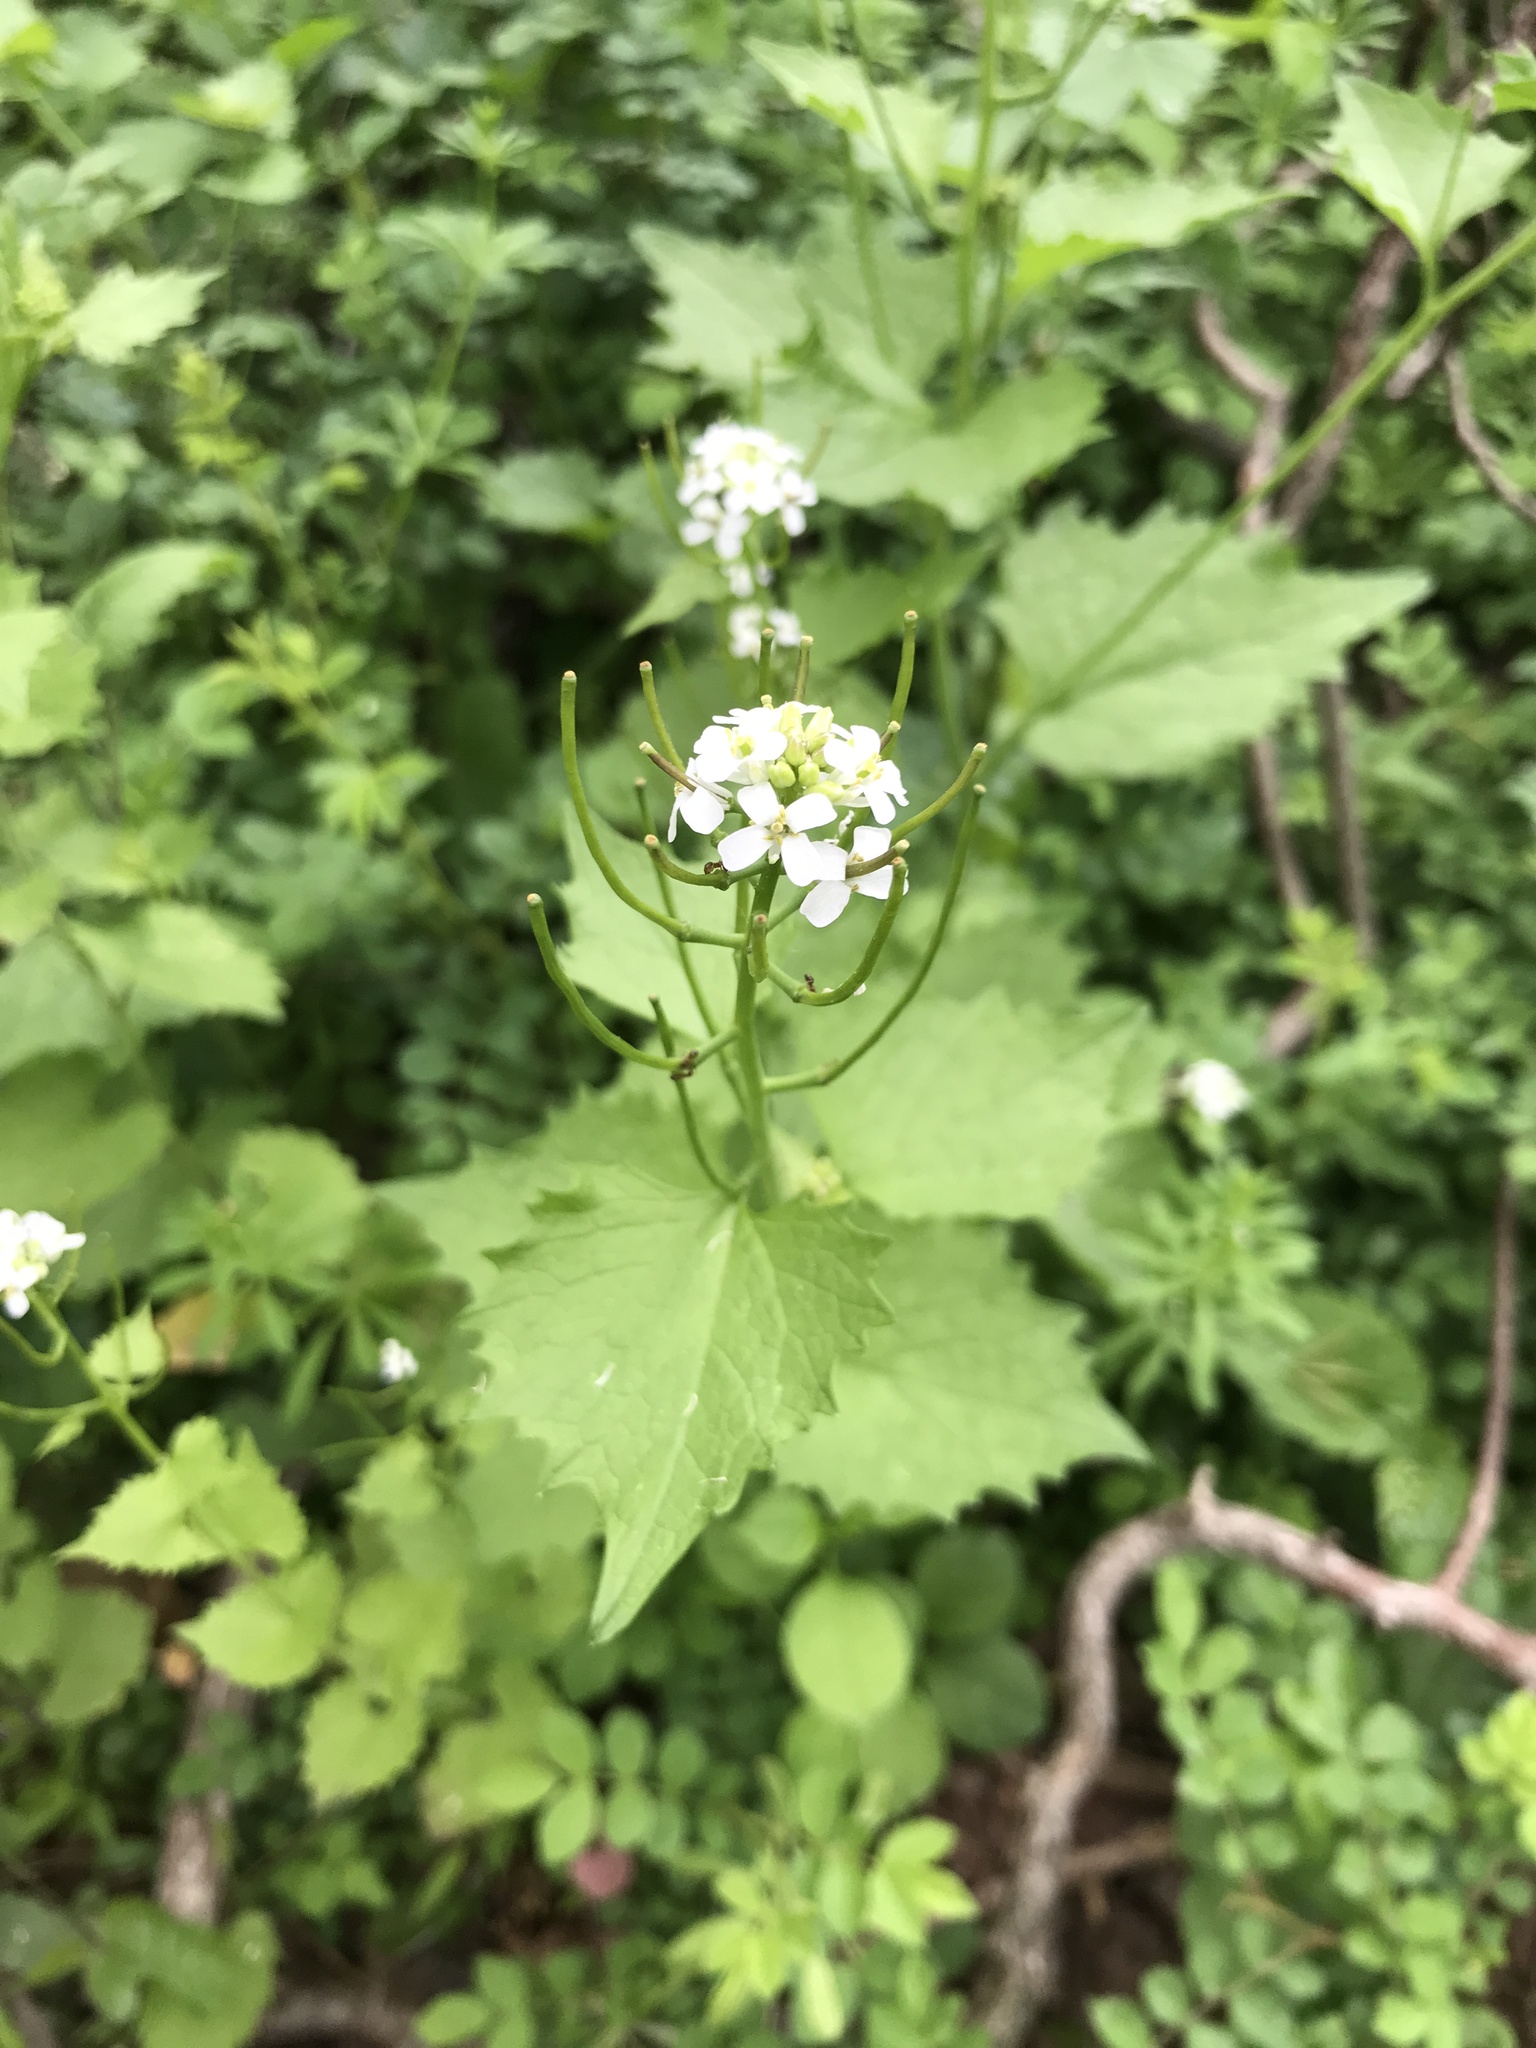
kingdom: Plantae
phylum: Tracheophyta
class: Magnoliopsida
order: Brassicales
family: Brassicaceae
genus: Alliaria
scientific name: Alliaria petiolata
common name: Garlic mustard
